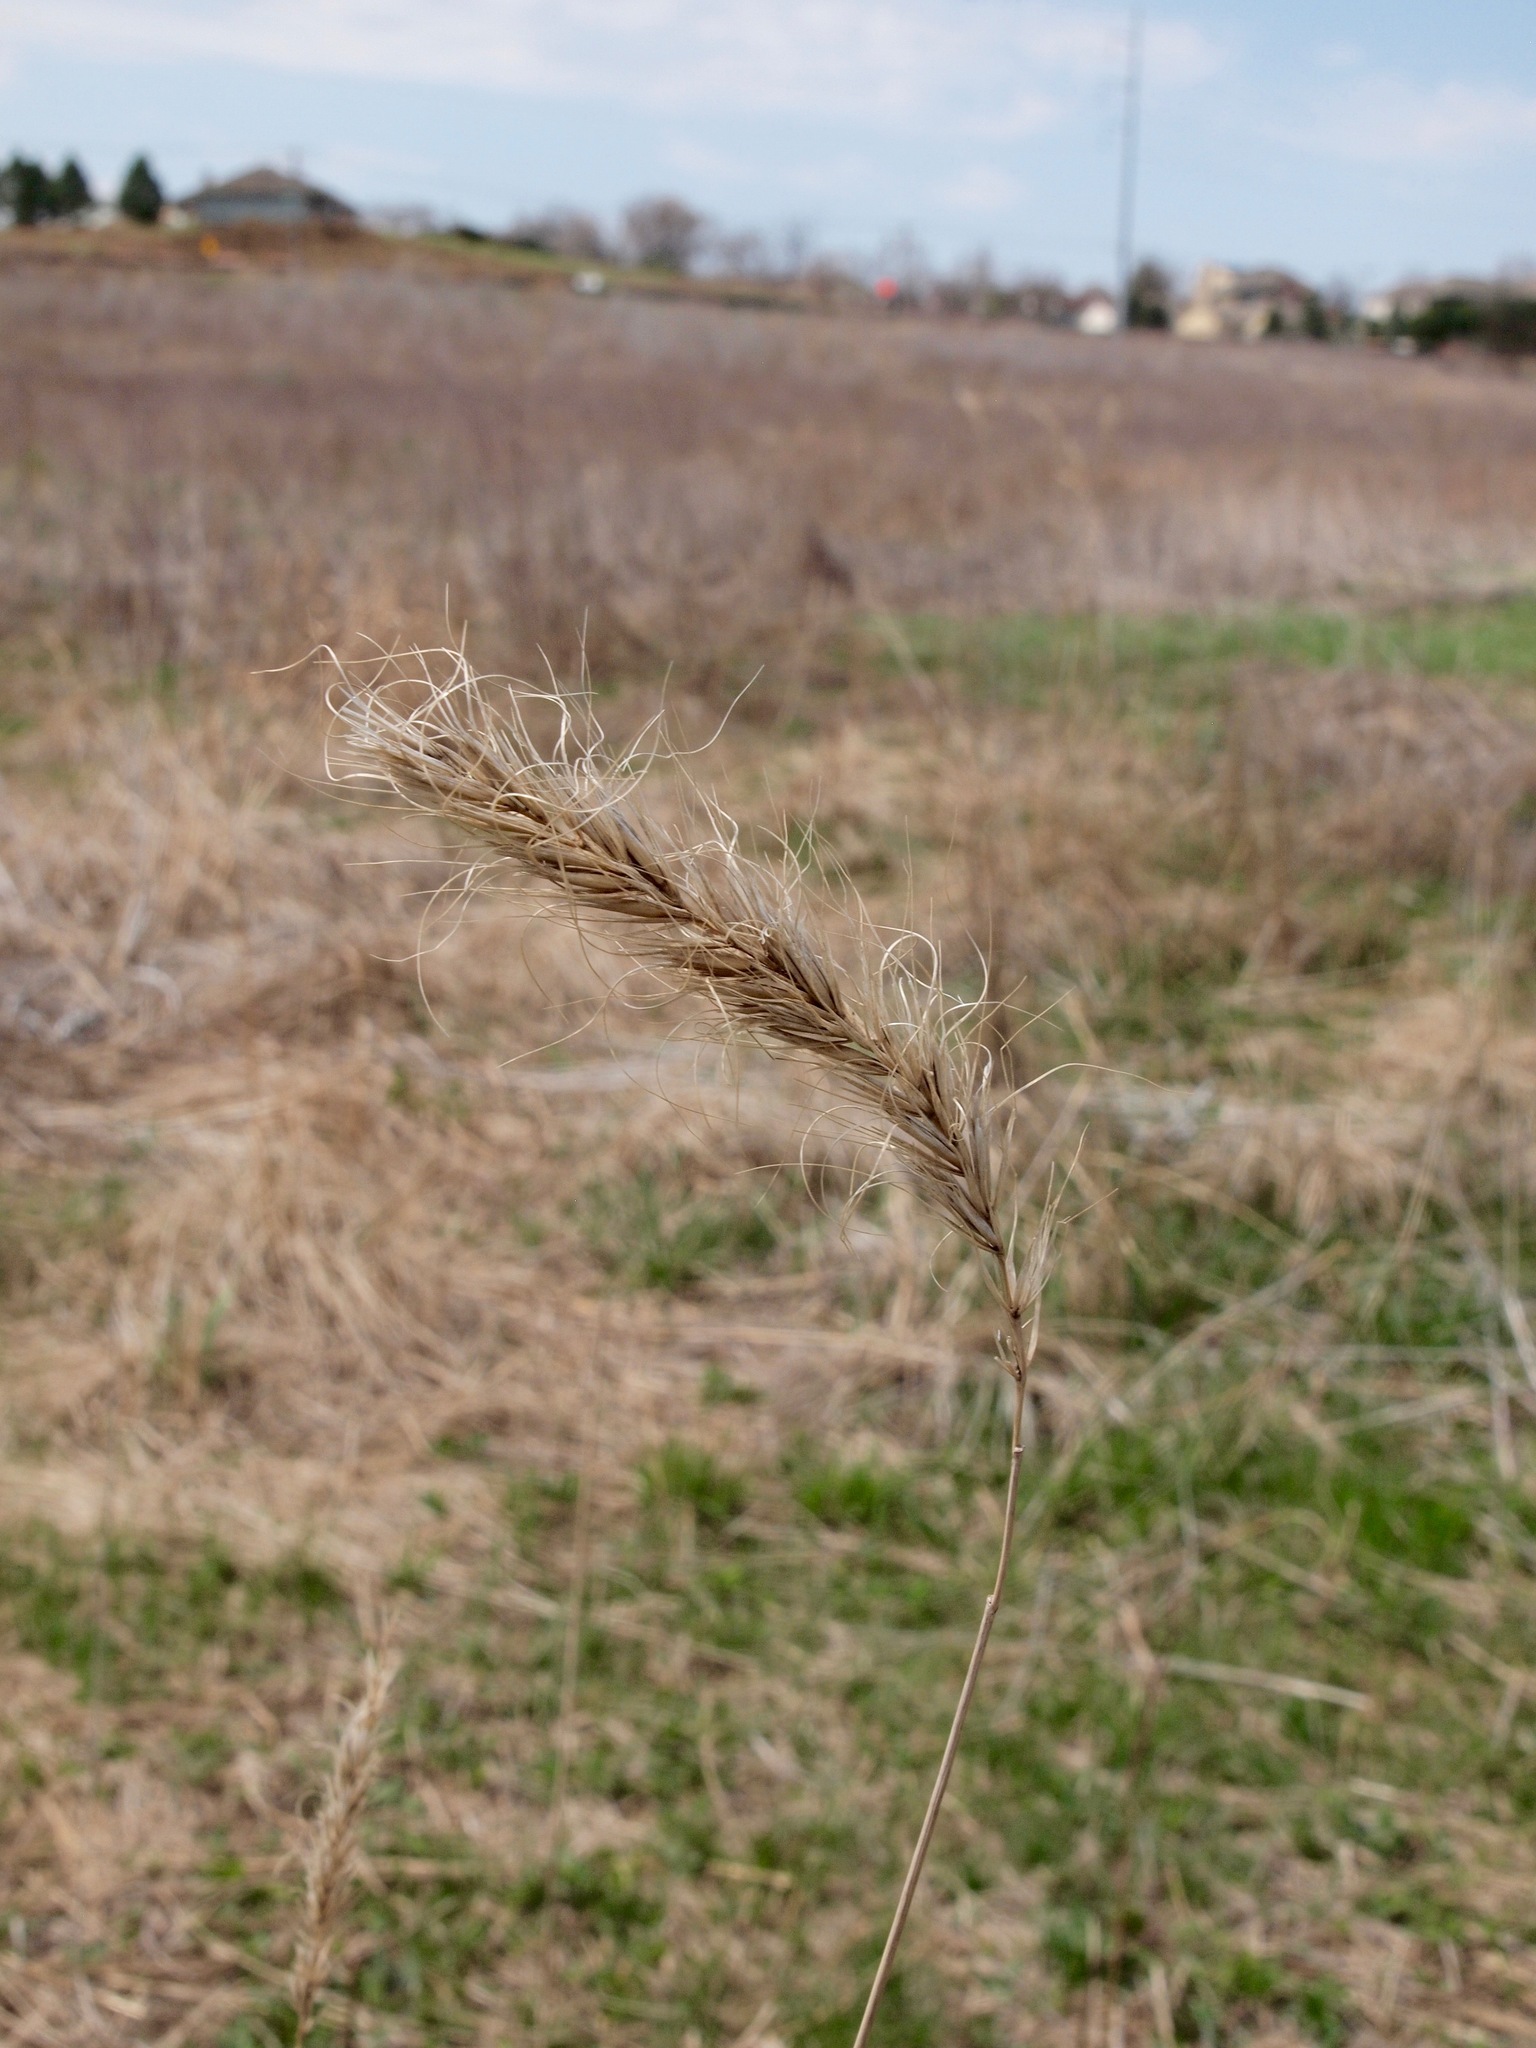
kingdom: Plantae
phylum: Tracheophyta
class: Liliopsida
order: Poales
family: Poaceae
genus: Elymus
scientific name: Elymus canadensis
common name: Canada wild rye
